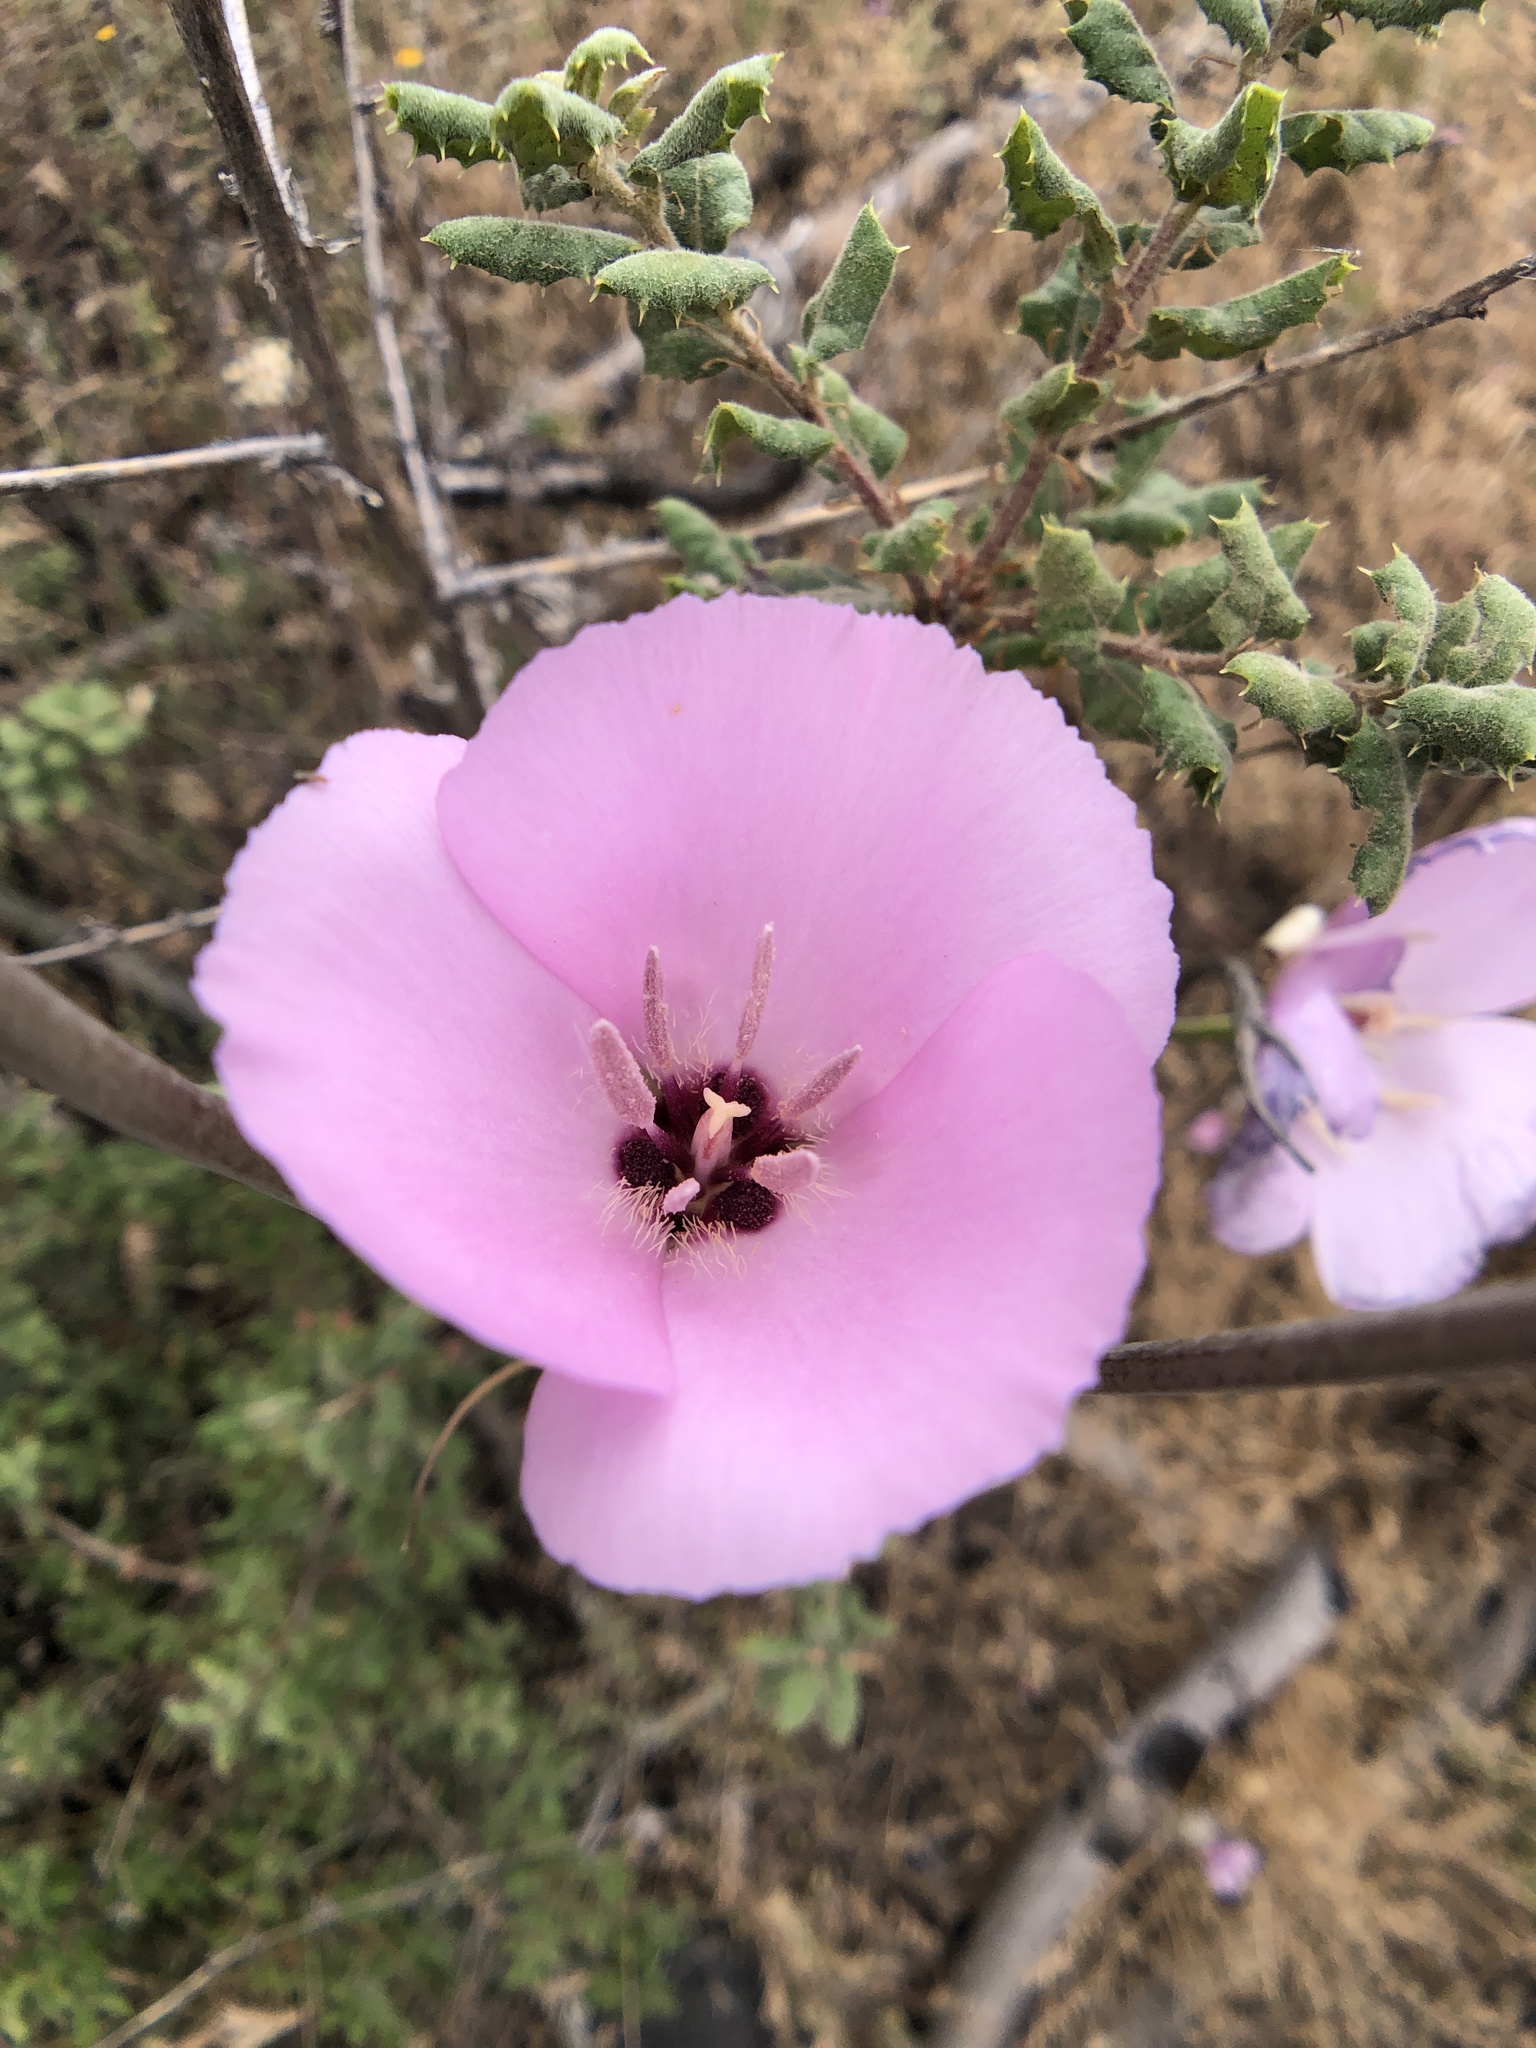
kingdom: Plantae
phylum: Tracheophyta
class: Liliopsida
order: Liliales
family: Liliaceae
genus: Calochortus
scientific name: Calochortus splendens
